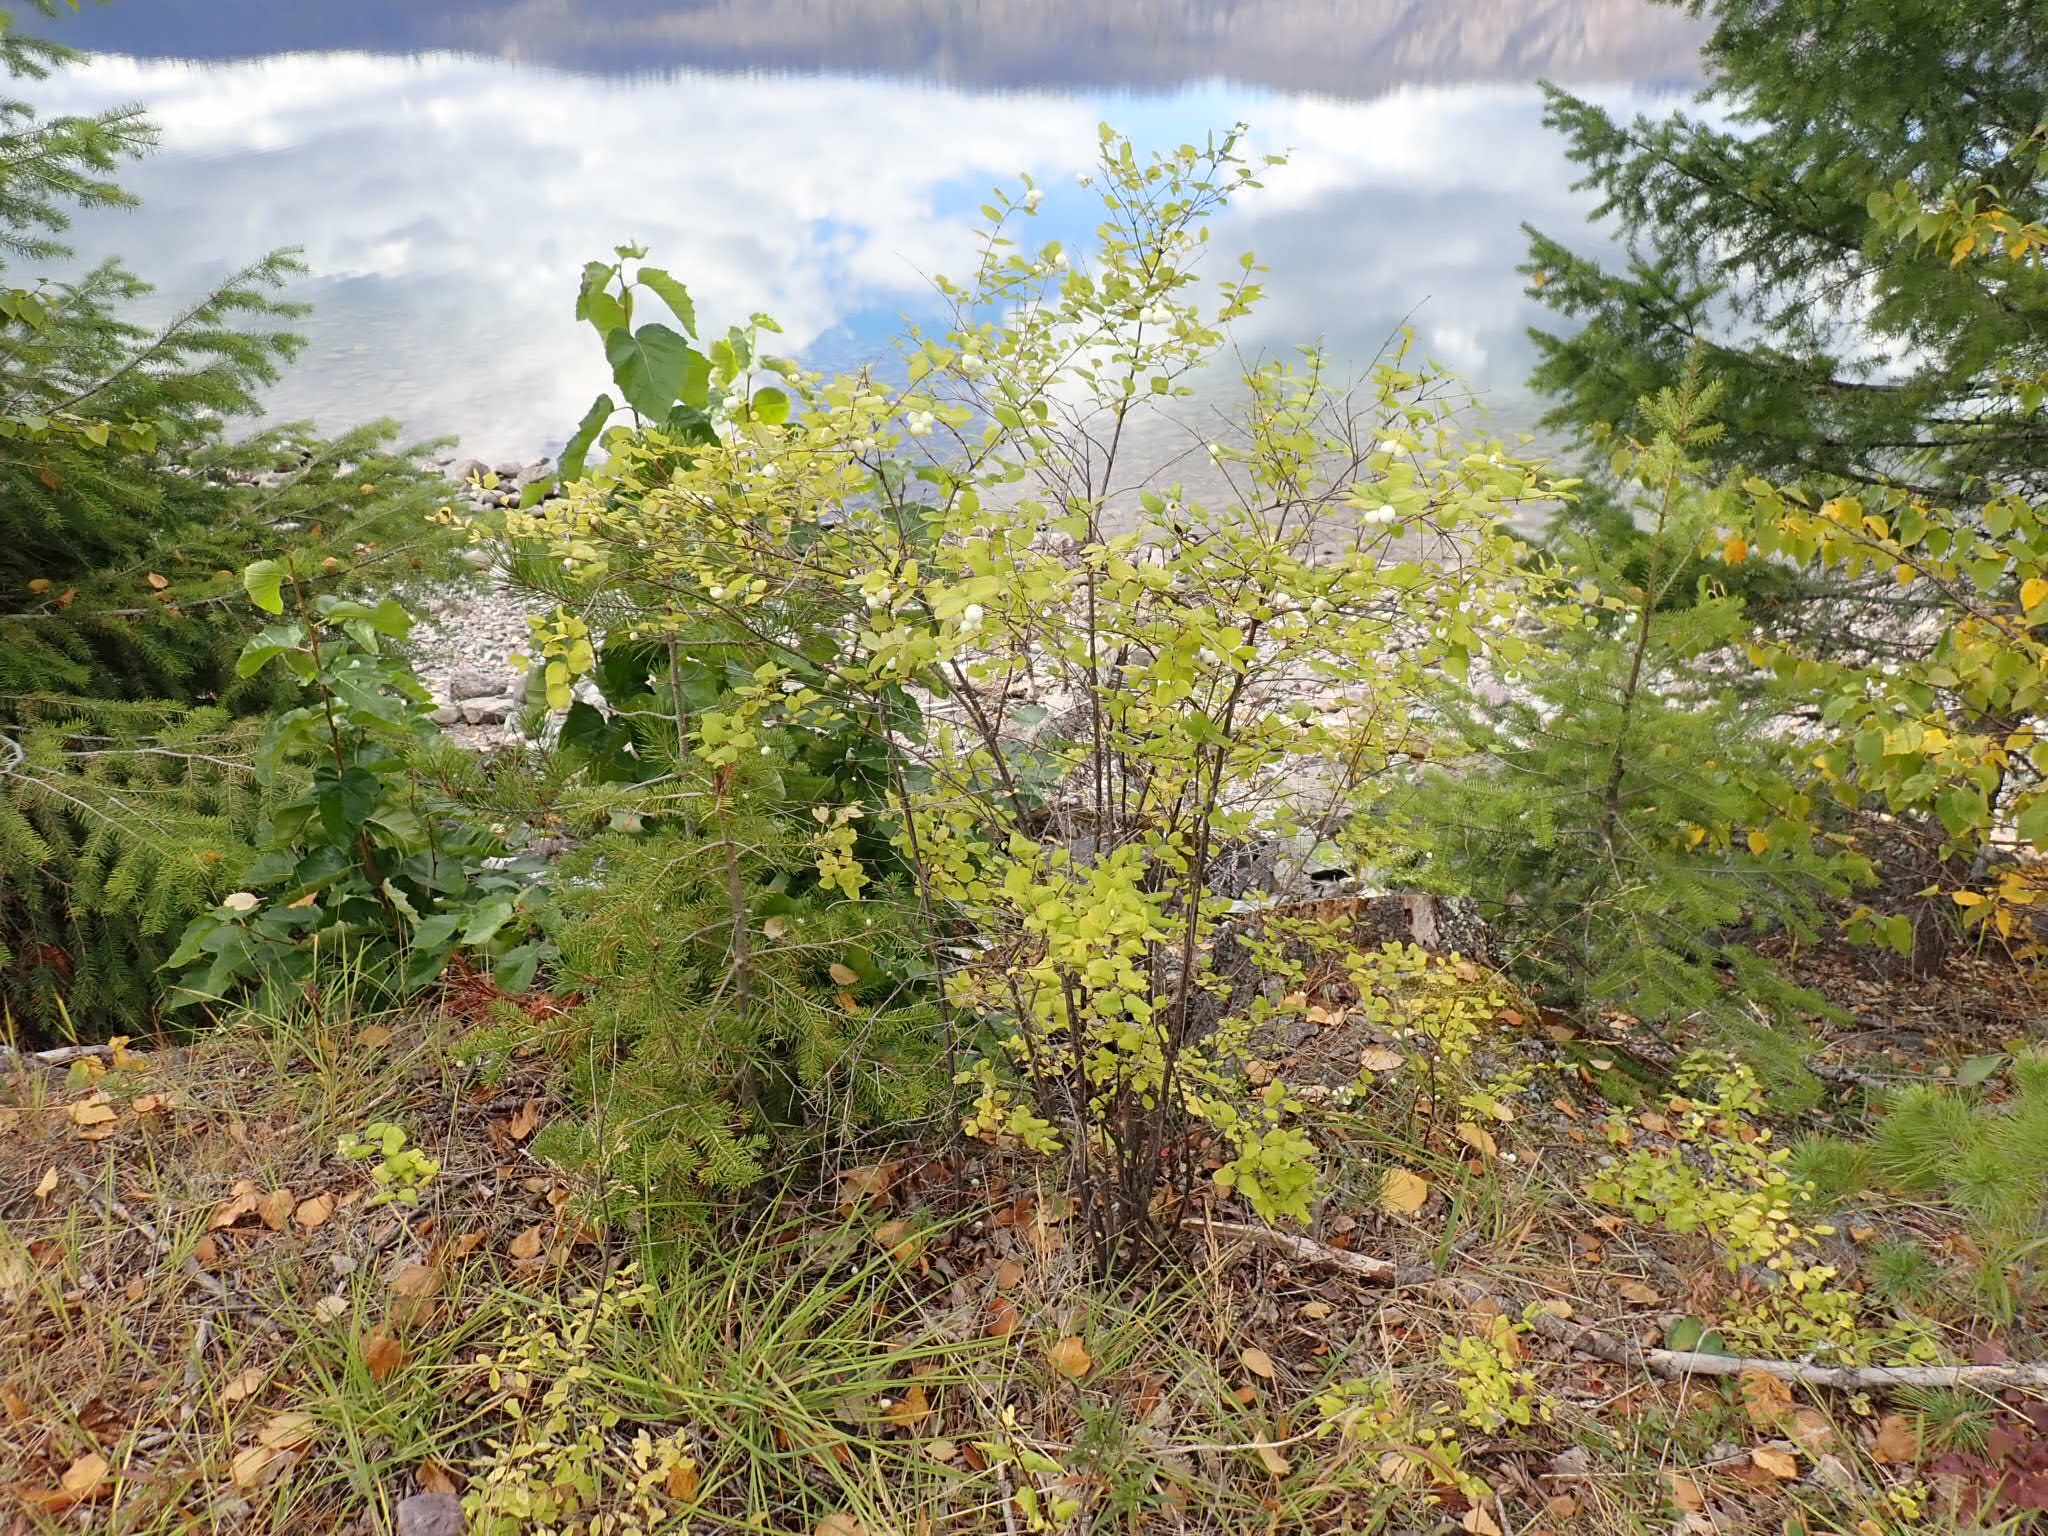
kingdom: Plantae
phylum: Tracheophyta
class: Magnoliopsida
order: Dipsacales
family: Caprifoliaceae
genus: Symphoricarpos
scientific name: Symphoricarpos albus
